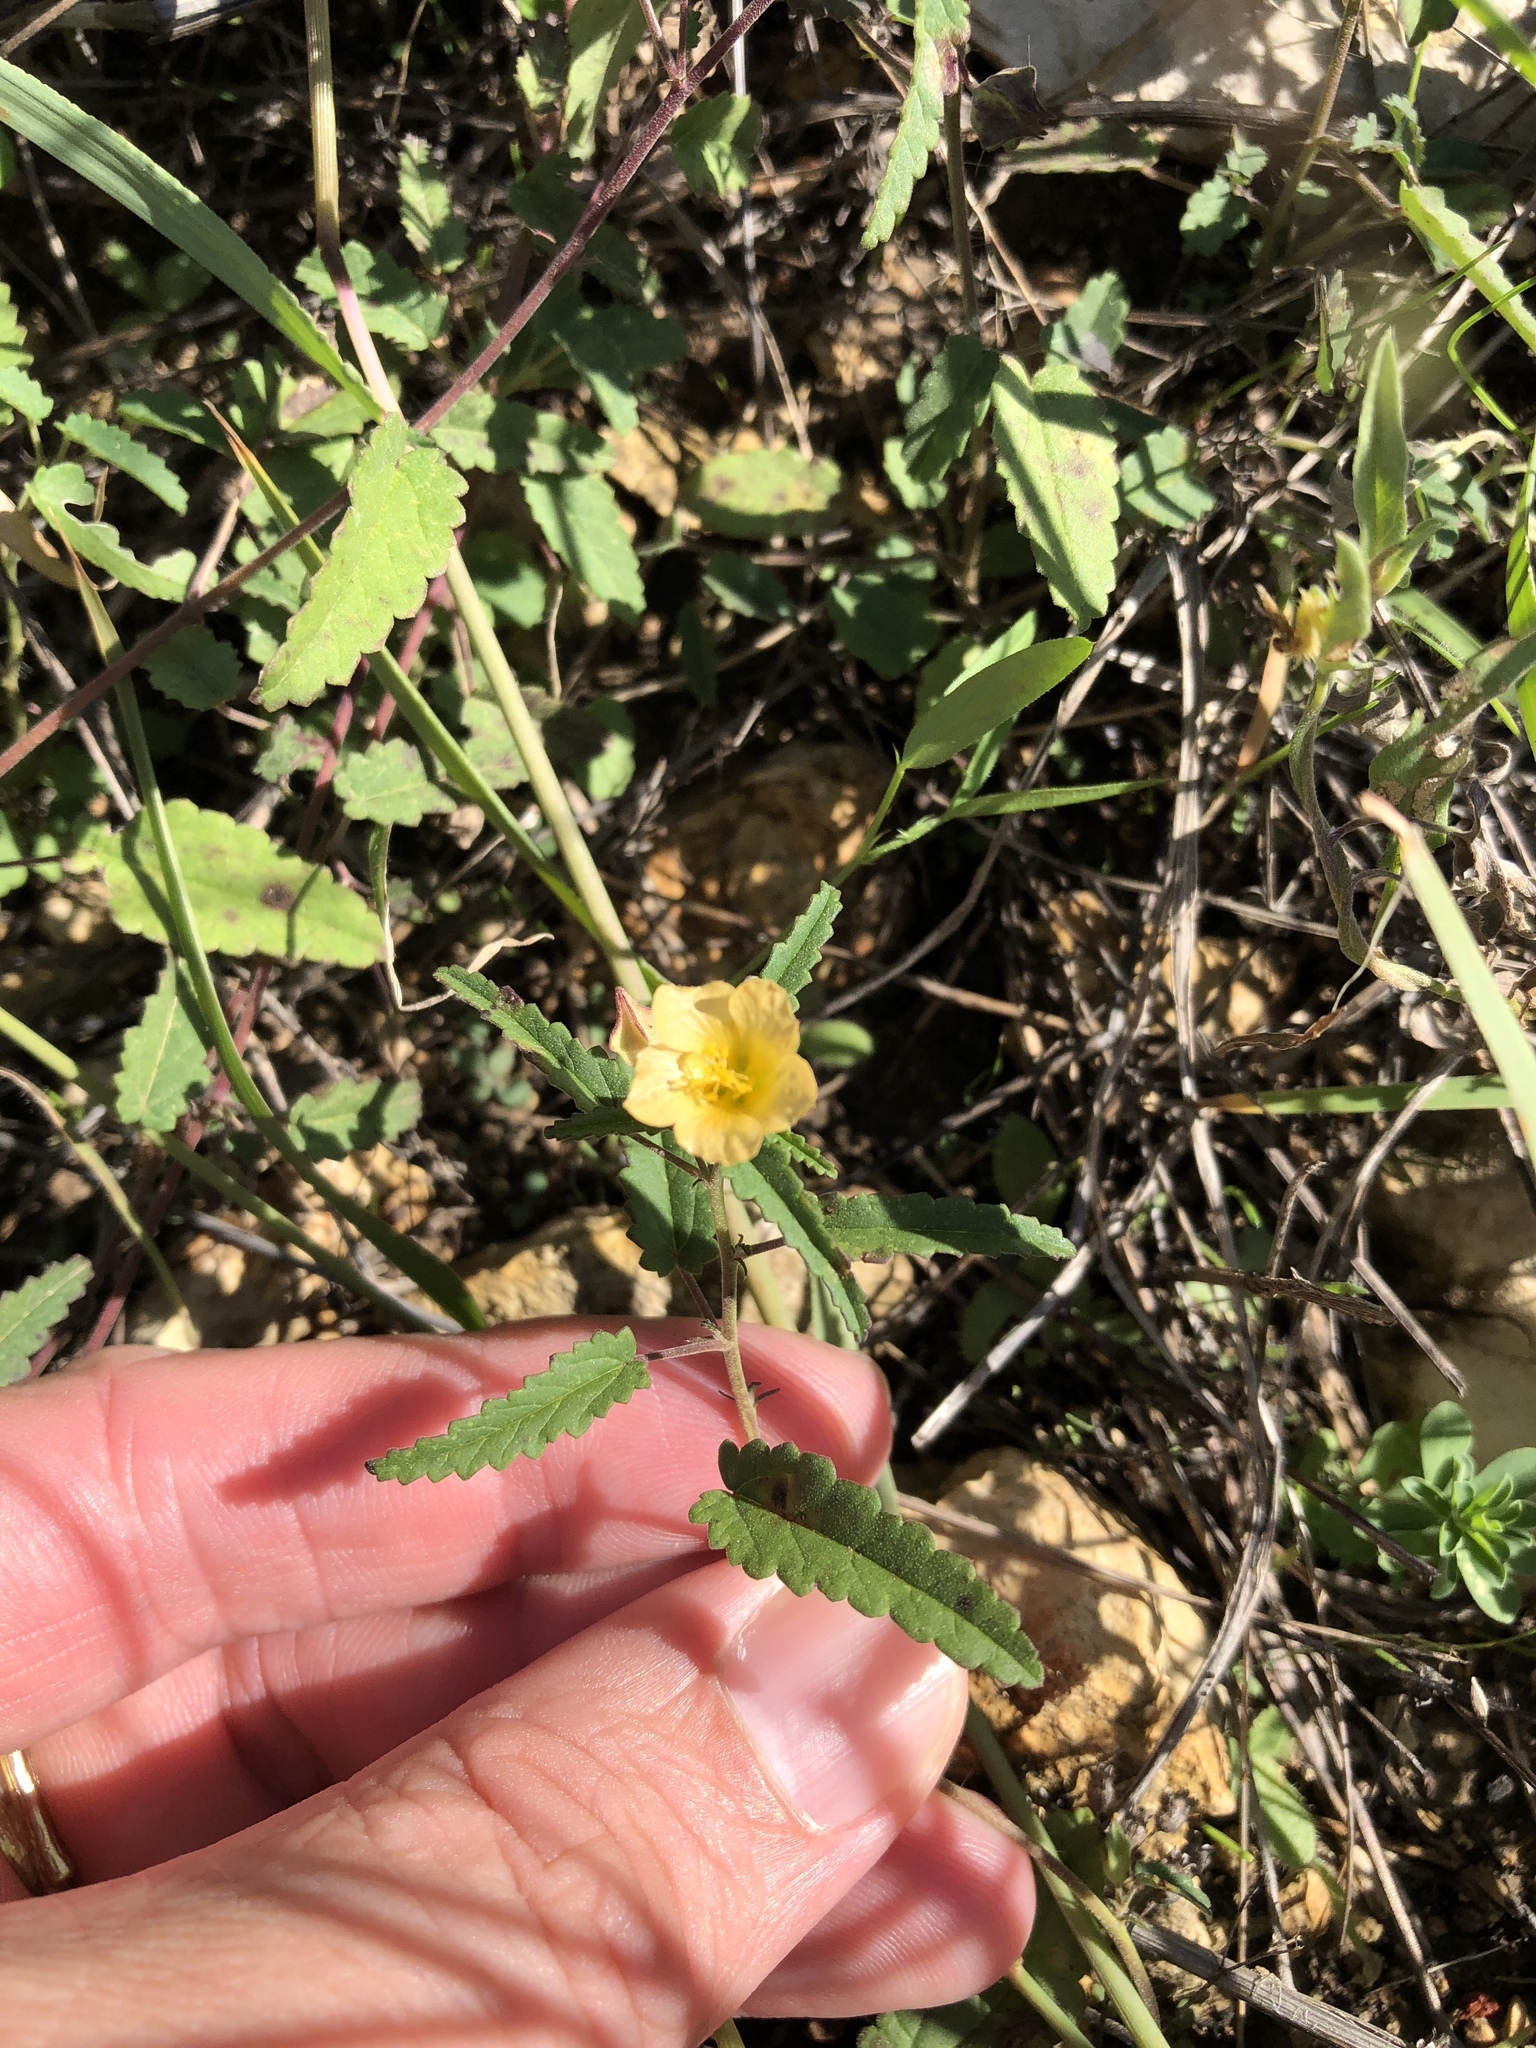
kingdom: Plantae
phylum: Tracheophyta
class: Magnoliopsida
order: Malvales
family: Malvaceae
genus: Sida
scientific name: Sida abutilifolia
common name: Spreading fanpetals
